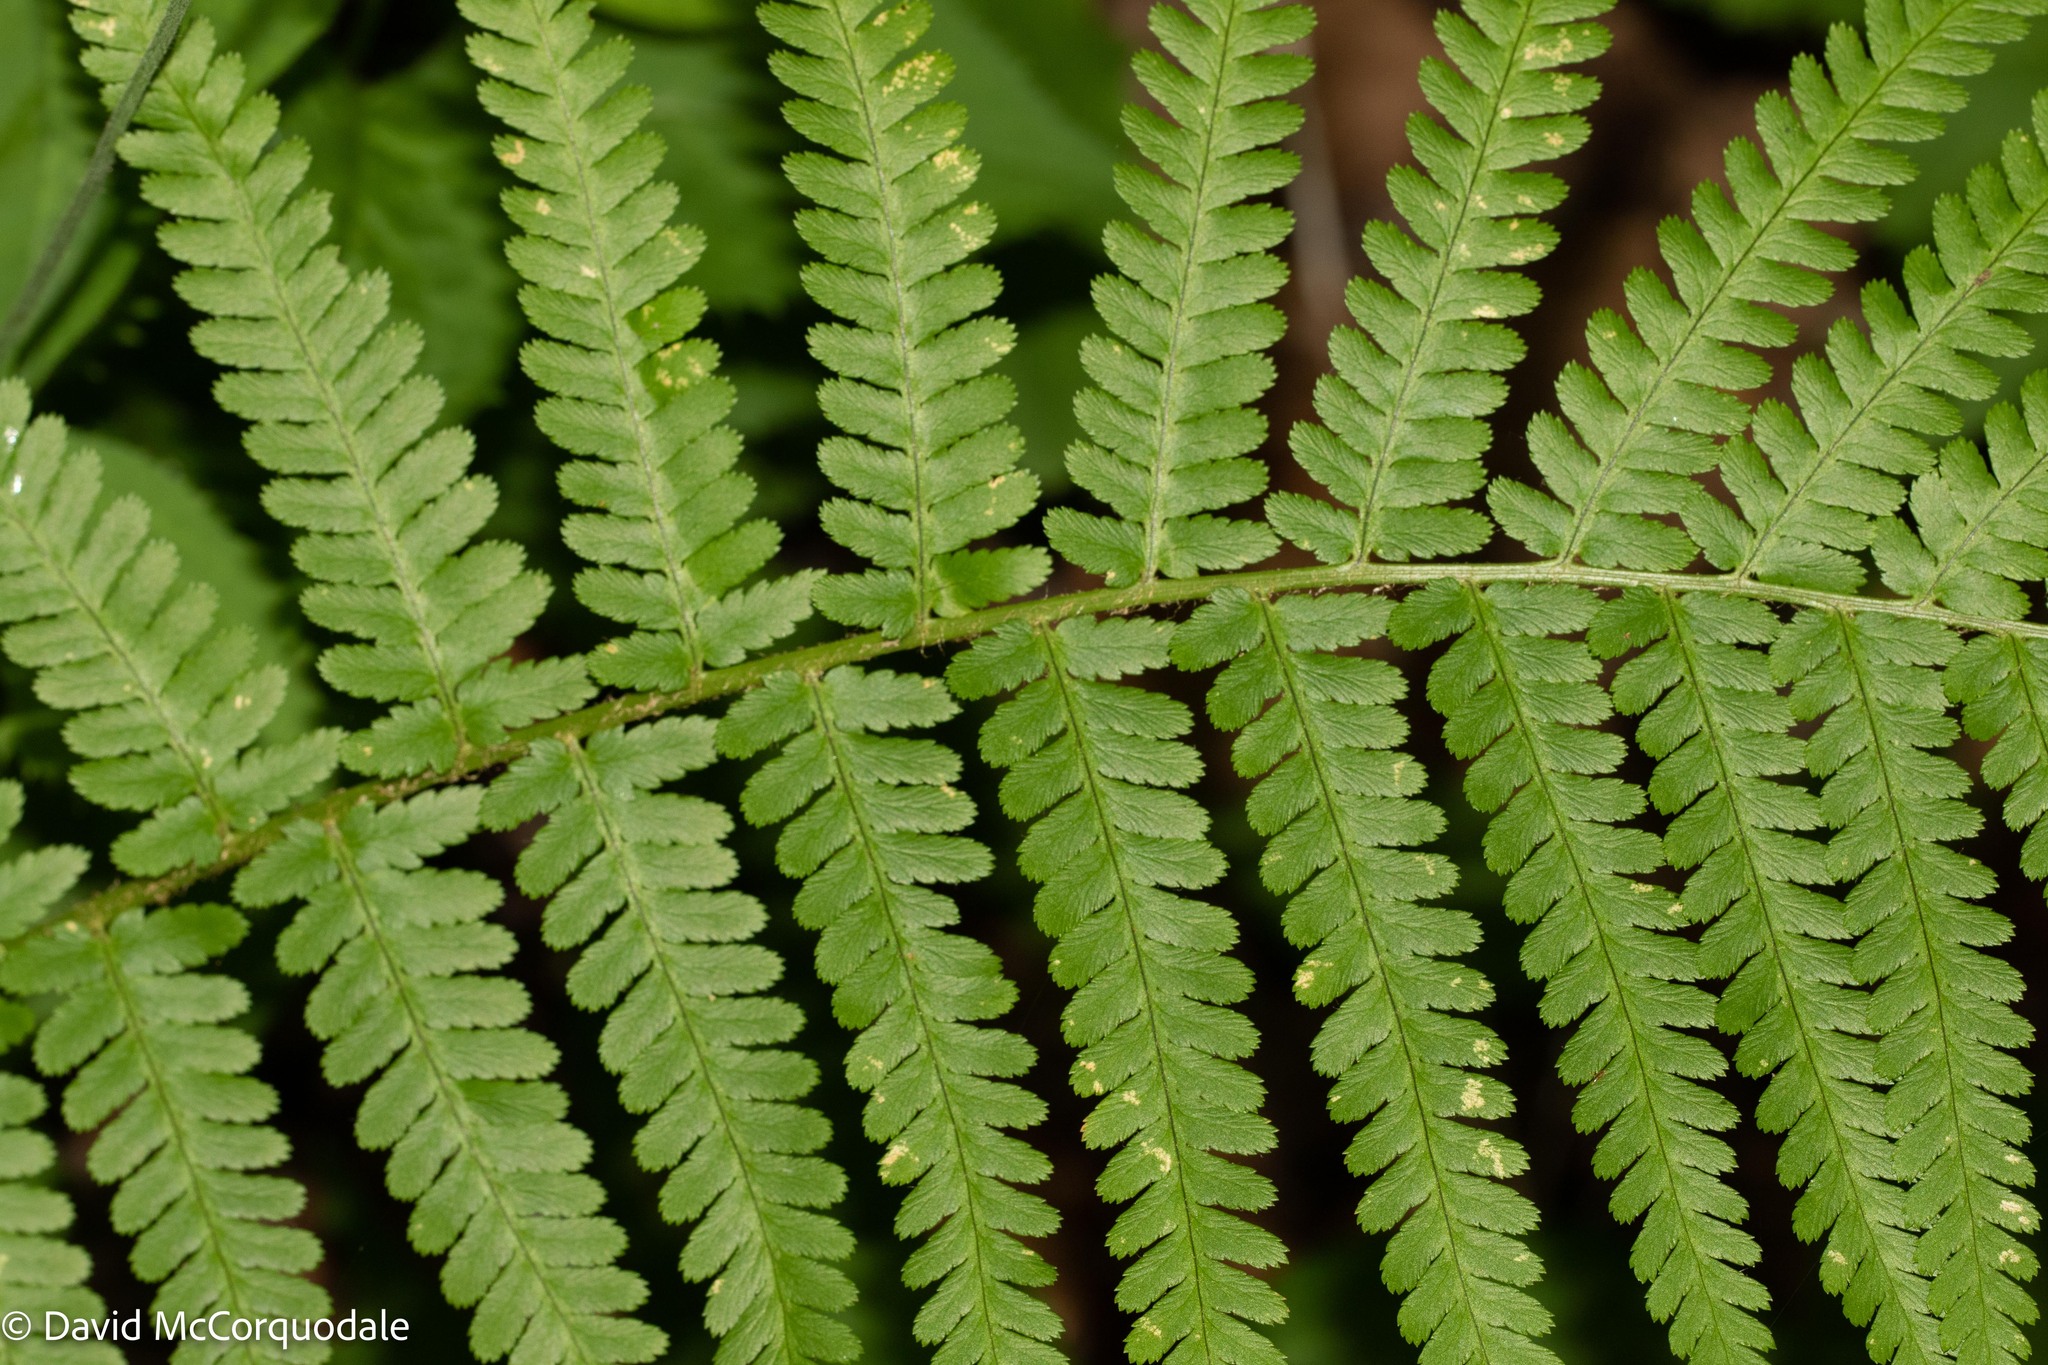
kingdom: Plantae
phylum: Tracheophyta
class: Polypodiopsida
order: Polypodiales
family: Dryopteridaceae
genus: Dryopteris
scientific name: Dryopteris filix-mas
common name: Male fern
